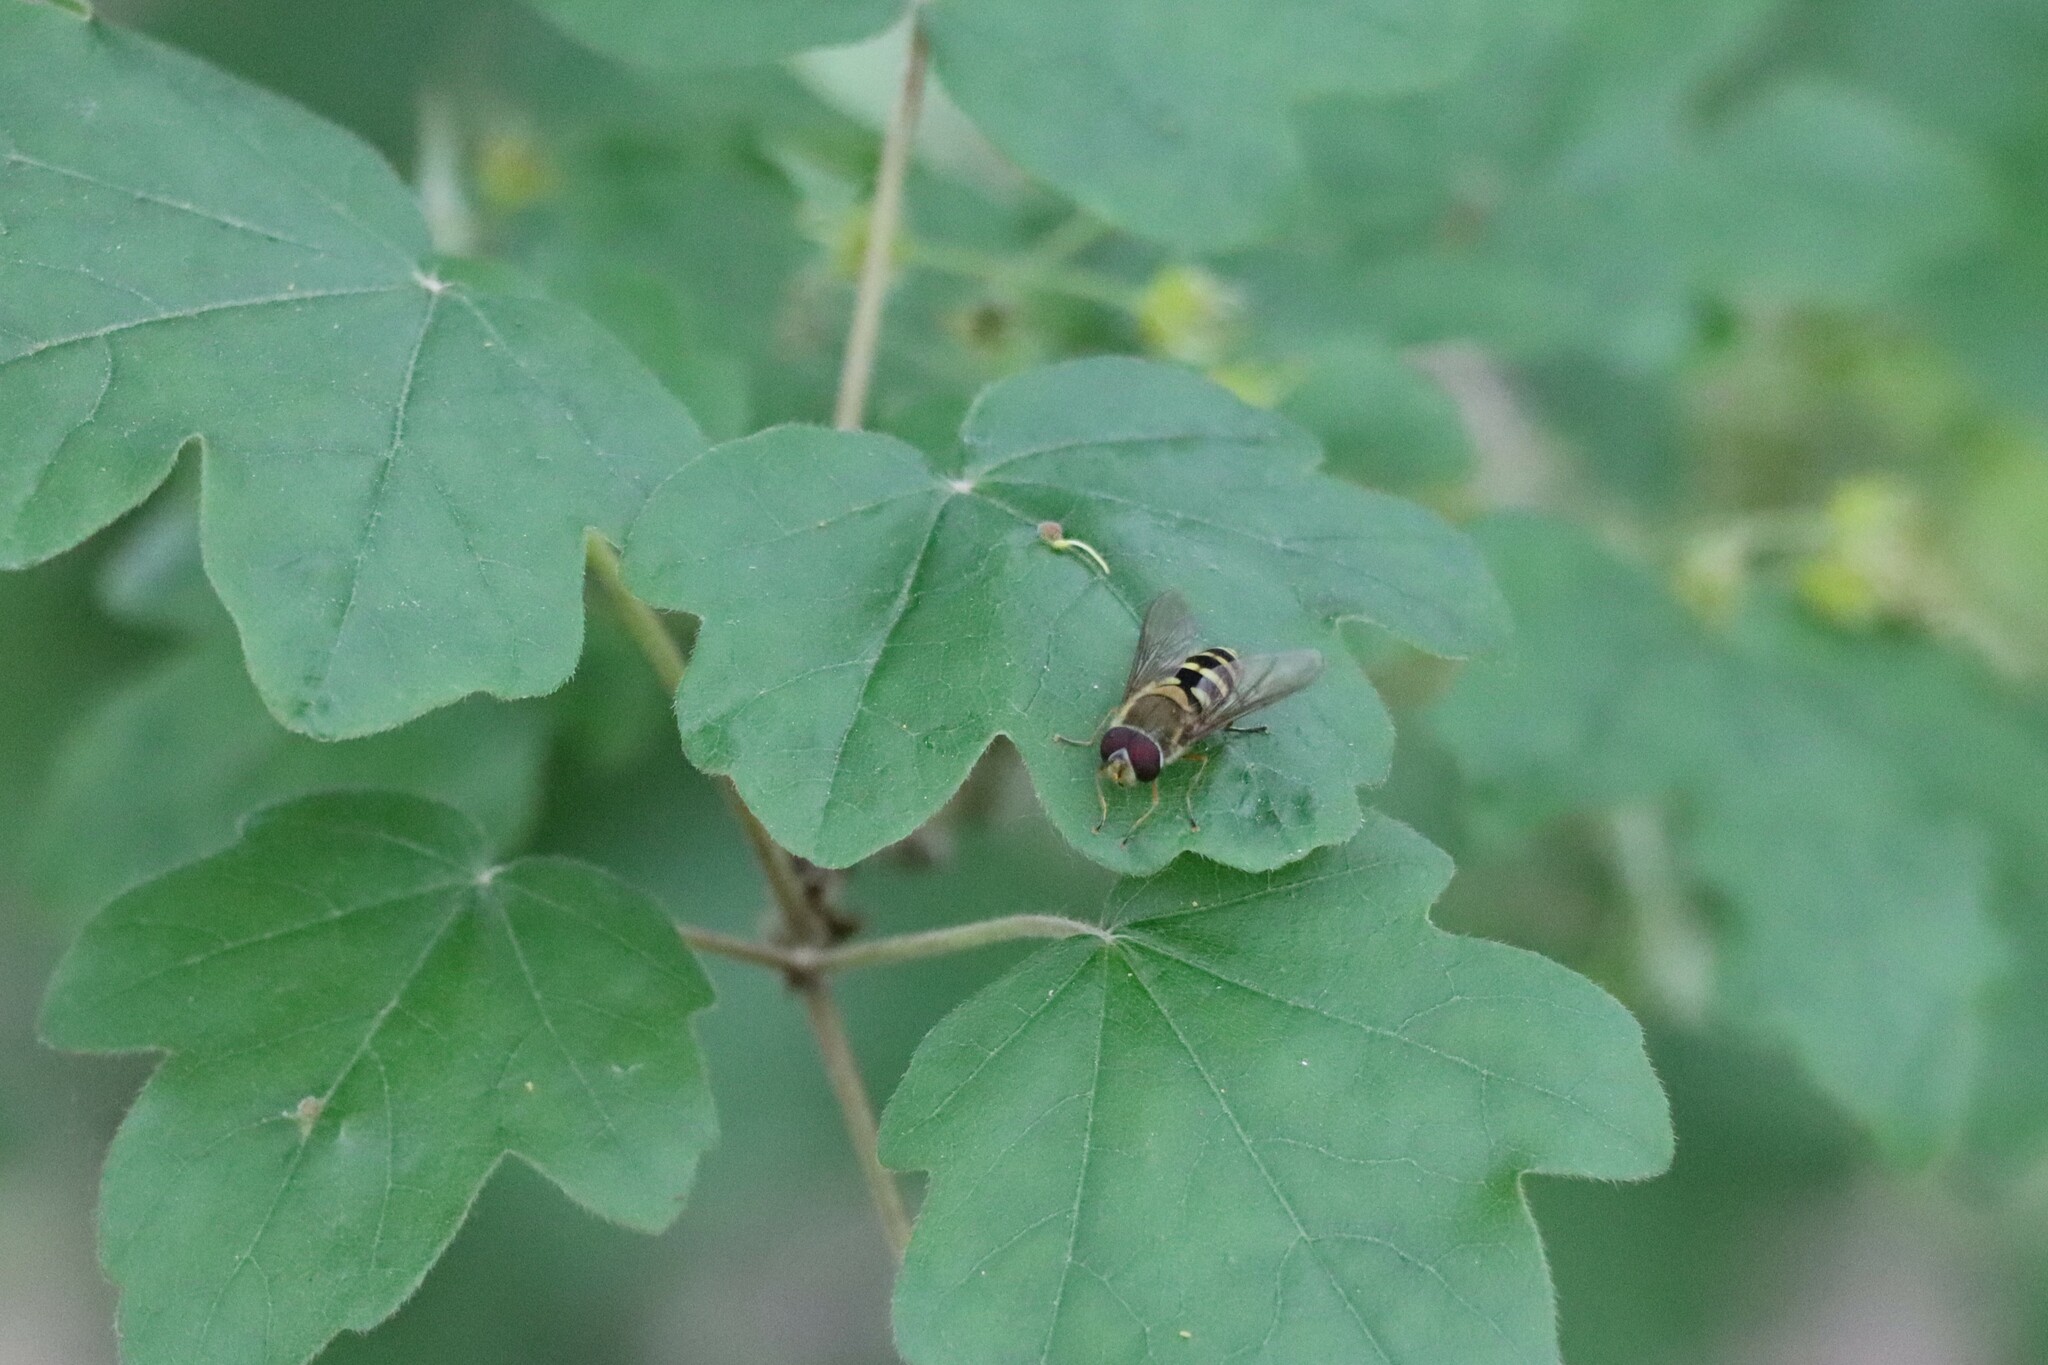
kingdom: Animalia
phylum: Arthropoda
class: Insecta
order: Diptera
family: Syrphidae
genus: Syrphus
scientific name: Syrphus
